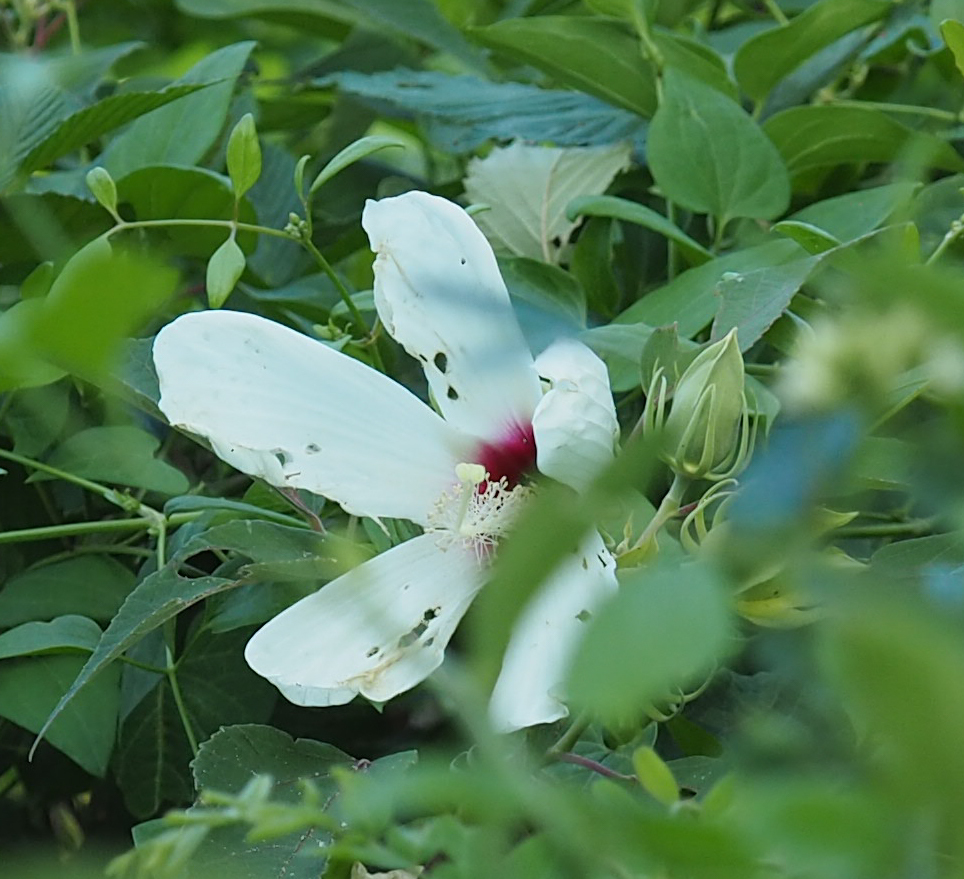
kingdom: Plantae
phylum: Tracheophyta
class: Magnoliopsida
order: Malvales
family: Malvaceae
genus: Hibiscus
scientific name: Hibiscus moscheutos
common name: Common rose-mallow
